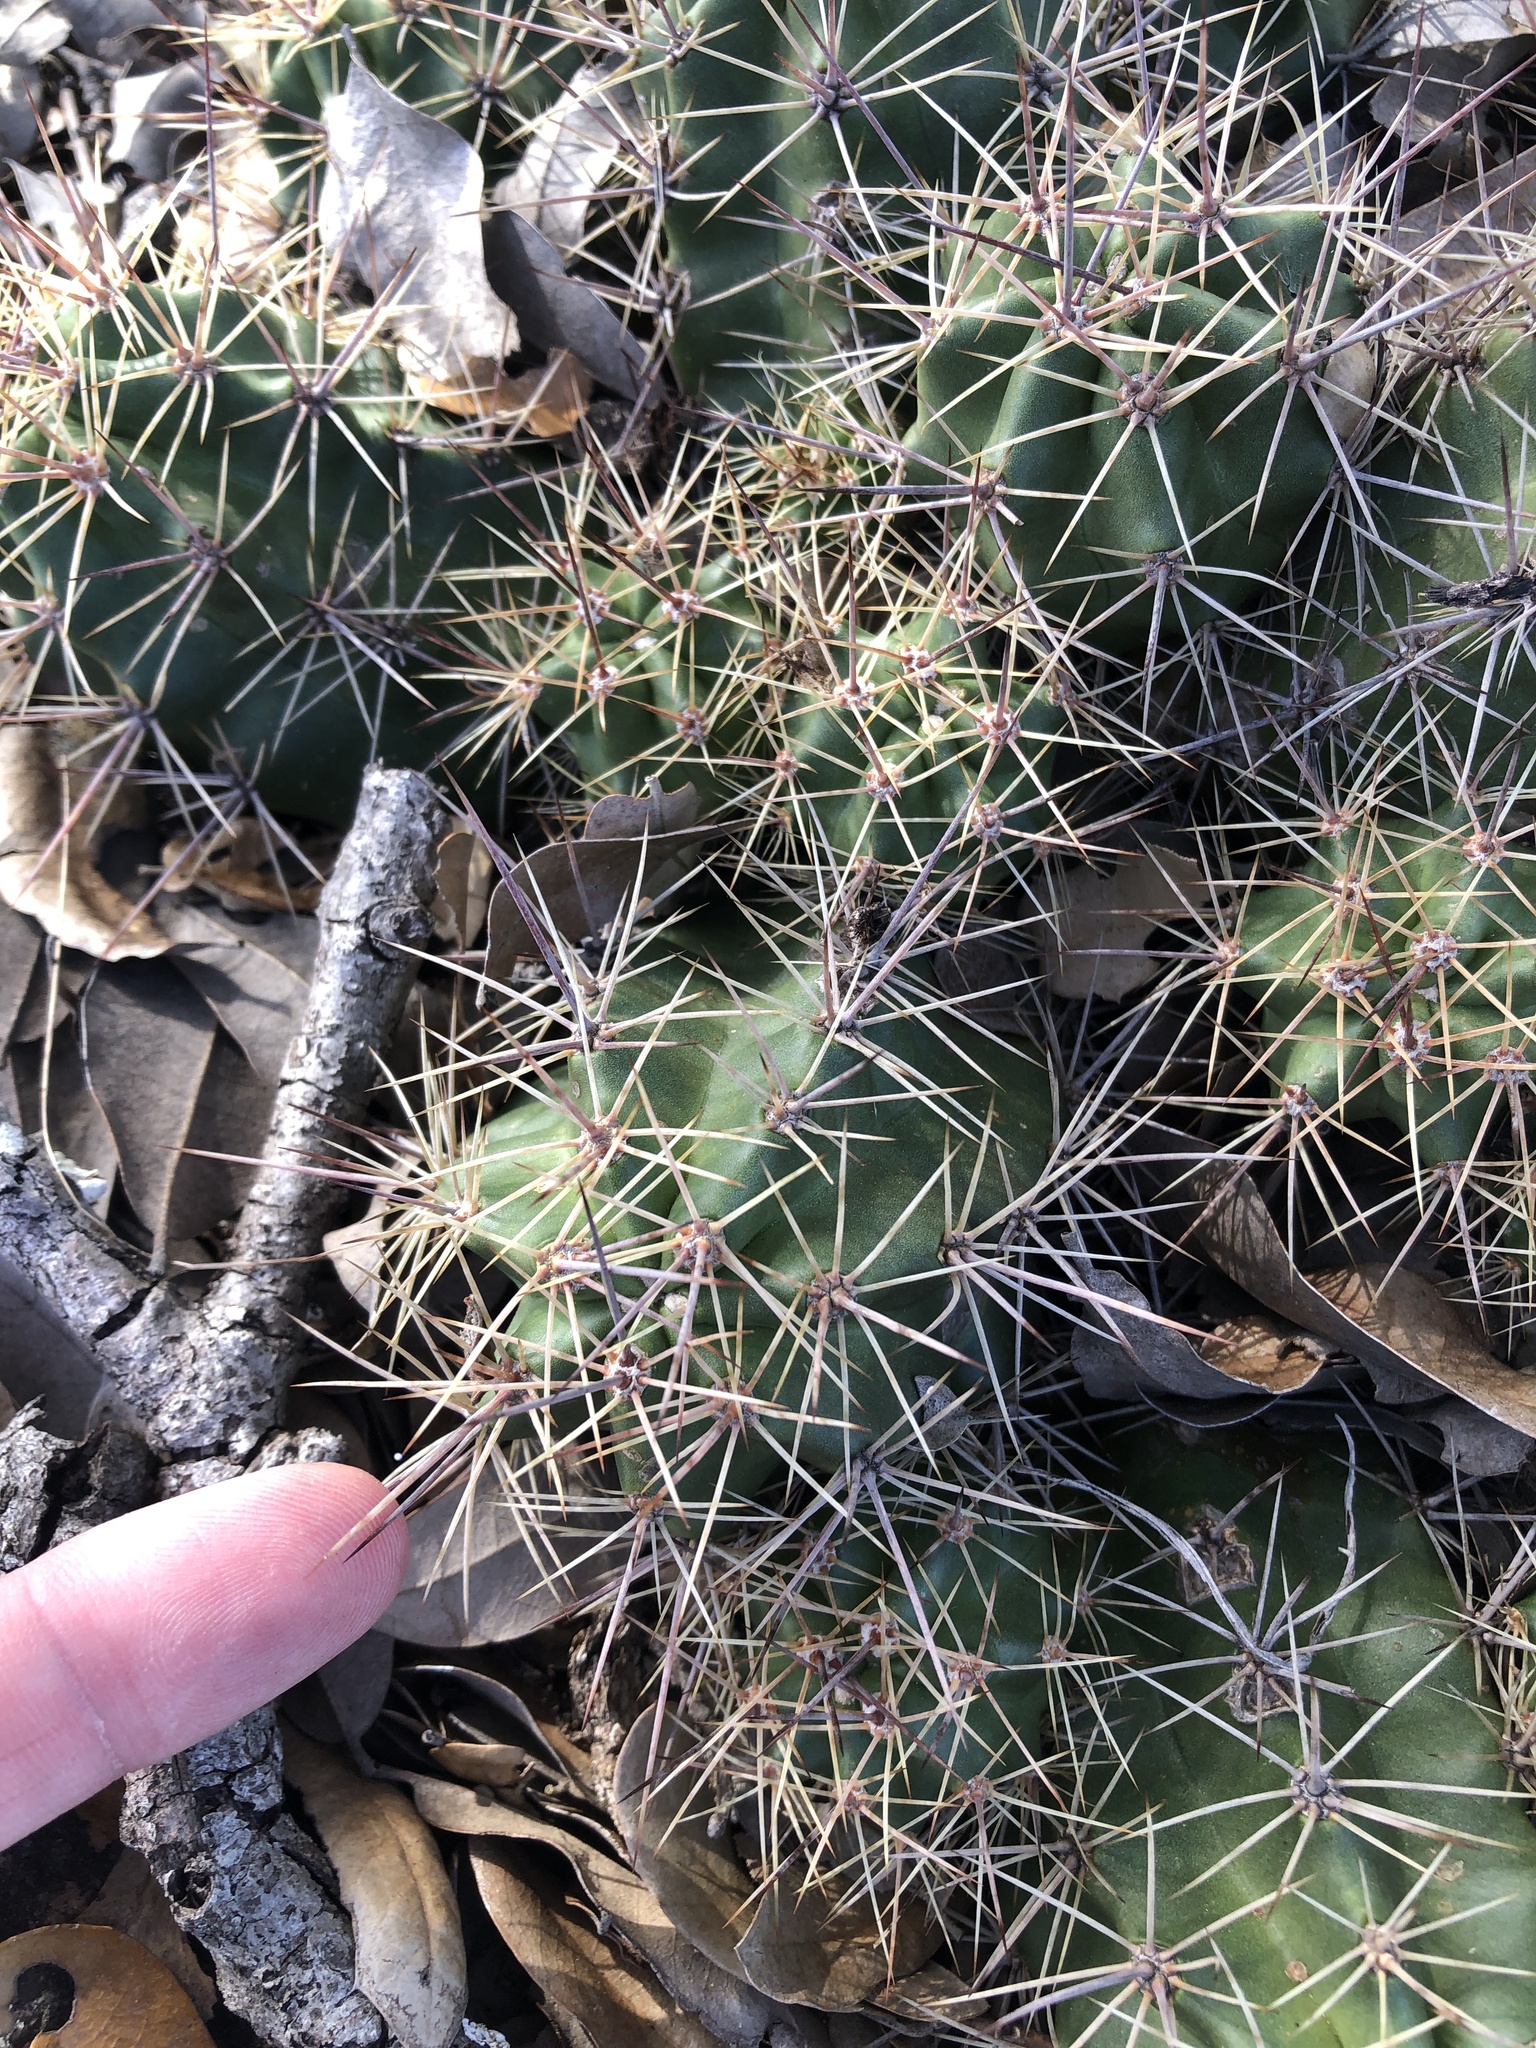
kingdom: Plantae
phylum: Tracheophyta
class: Magnoliopsida
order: Caryophyllales
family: Cactaceae
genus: Echinocereus
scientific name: Echinocereus coccineus
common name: Scarlet hedgehog cactus
